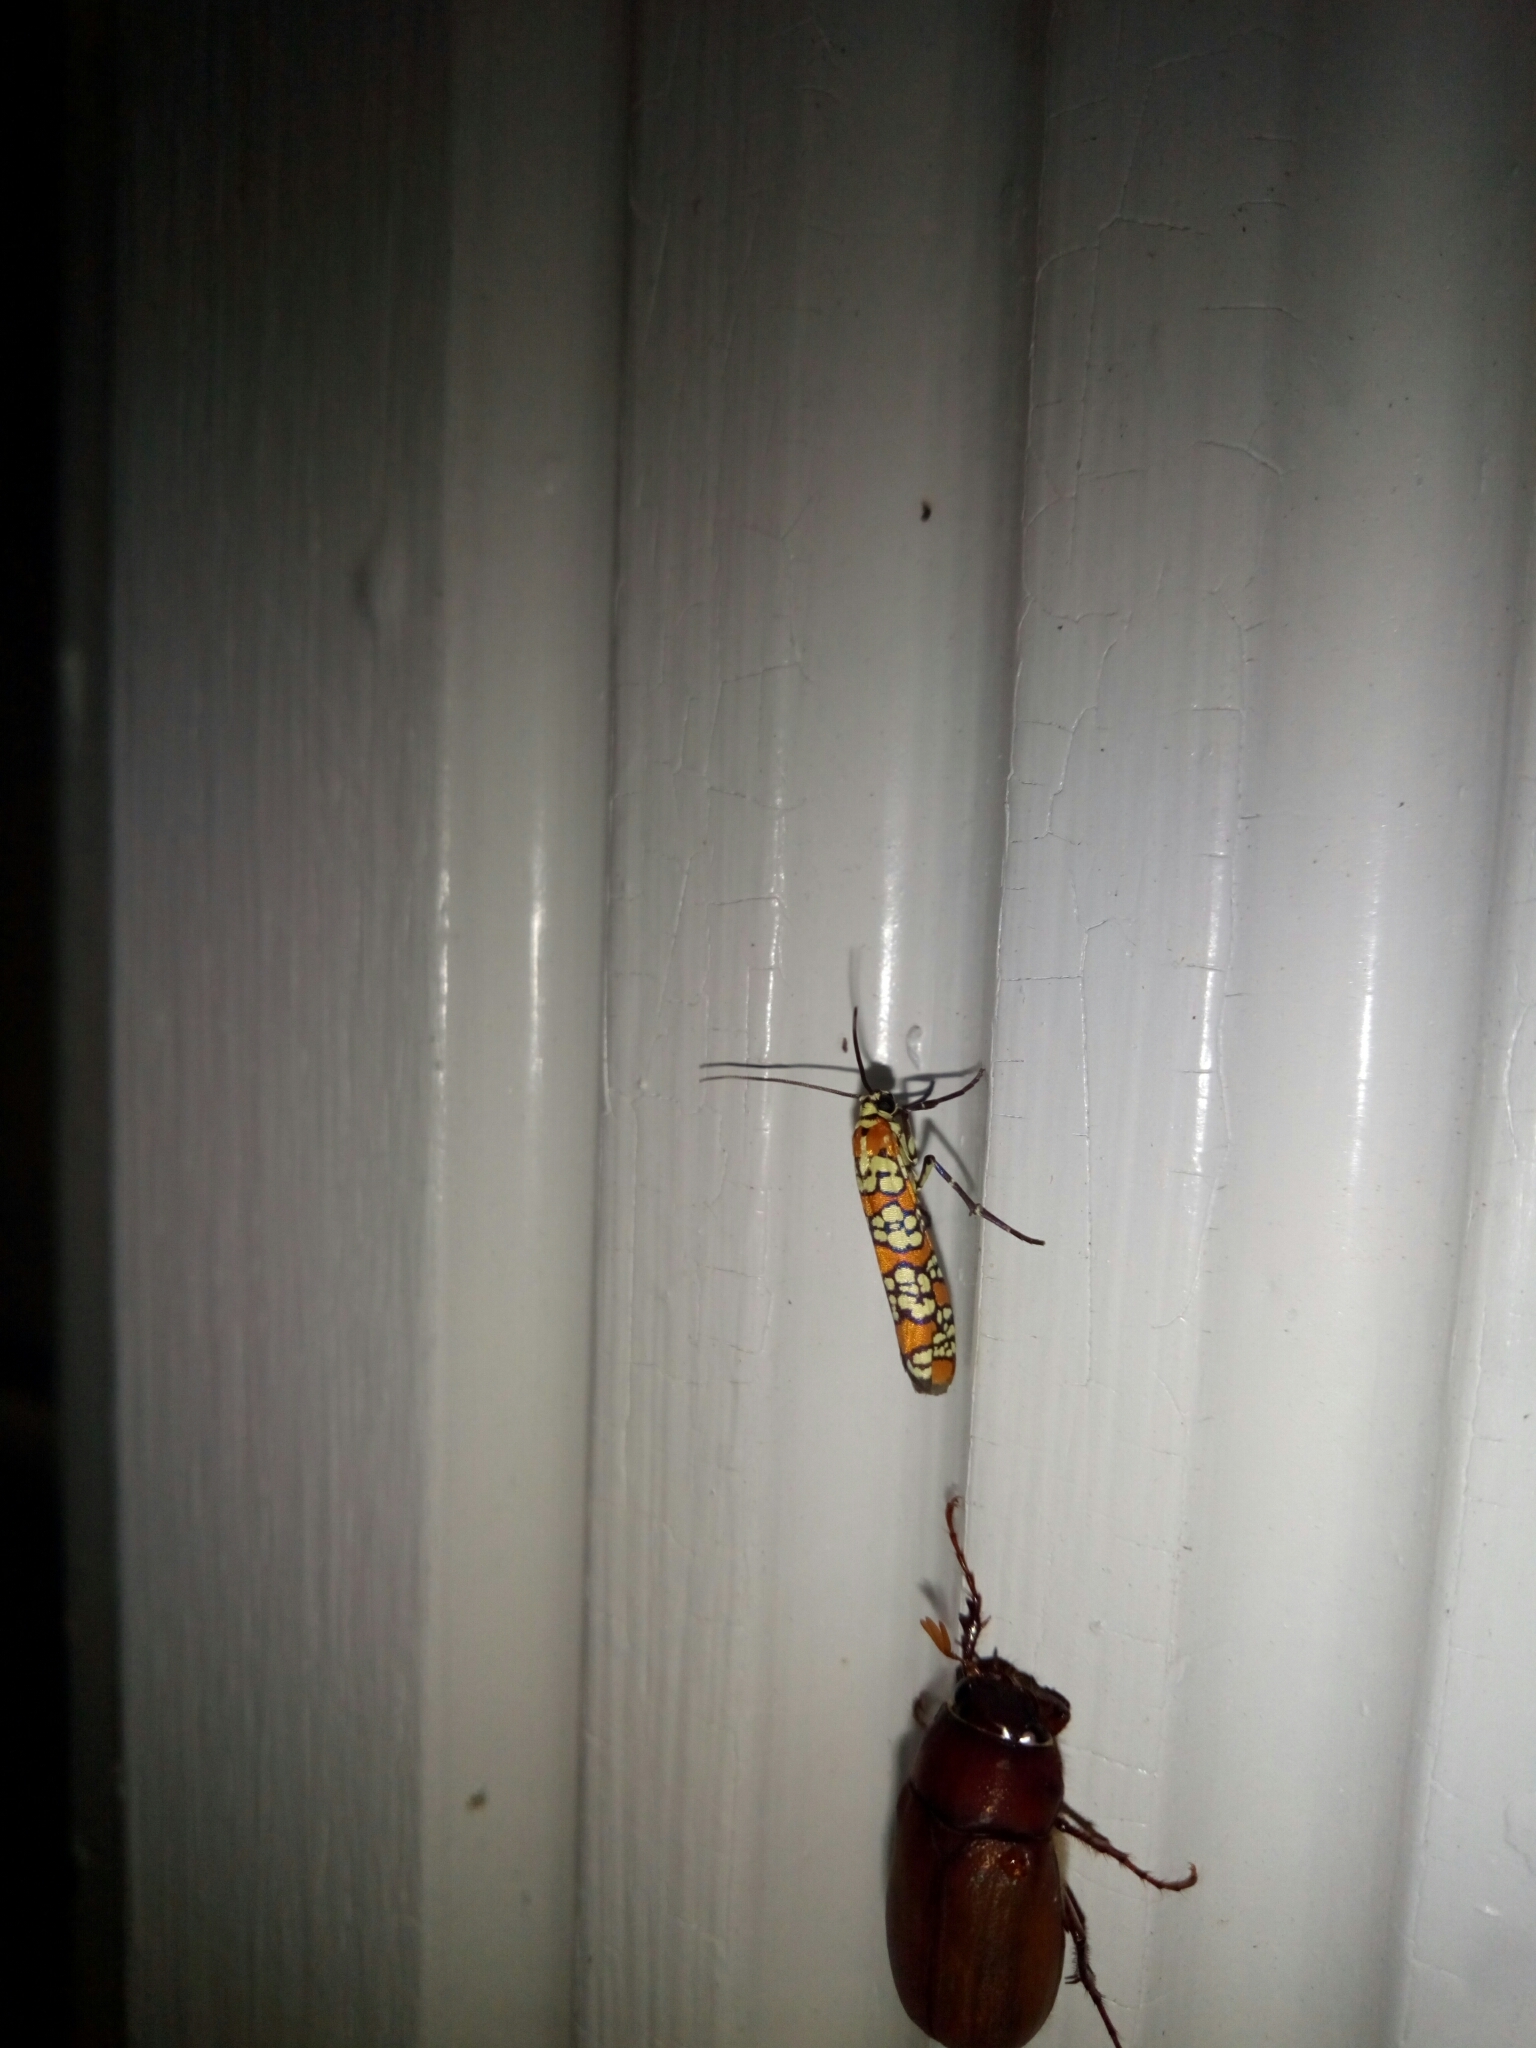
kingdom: Animalia
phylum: Arthropoda
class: Insecta
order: Lepidoptera
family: Attevidae
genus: Atteva
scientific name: Atteva punctella
